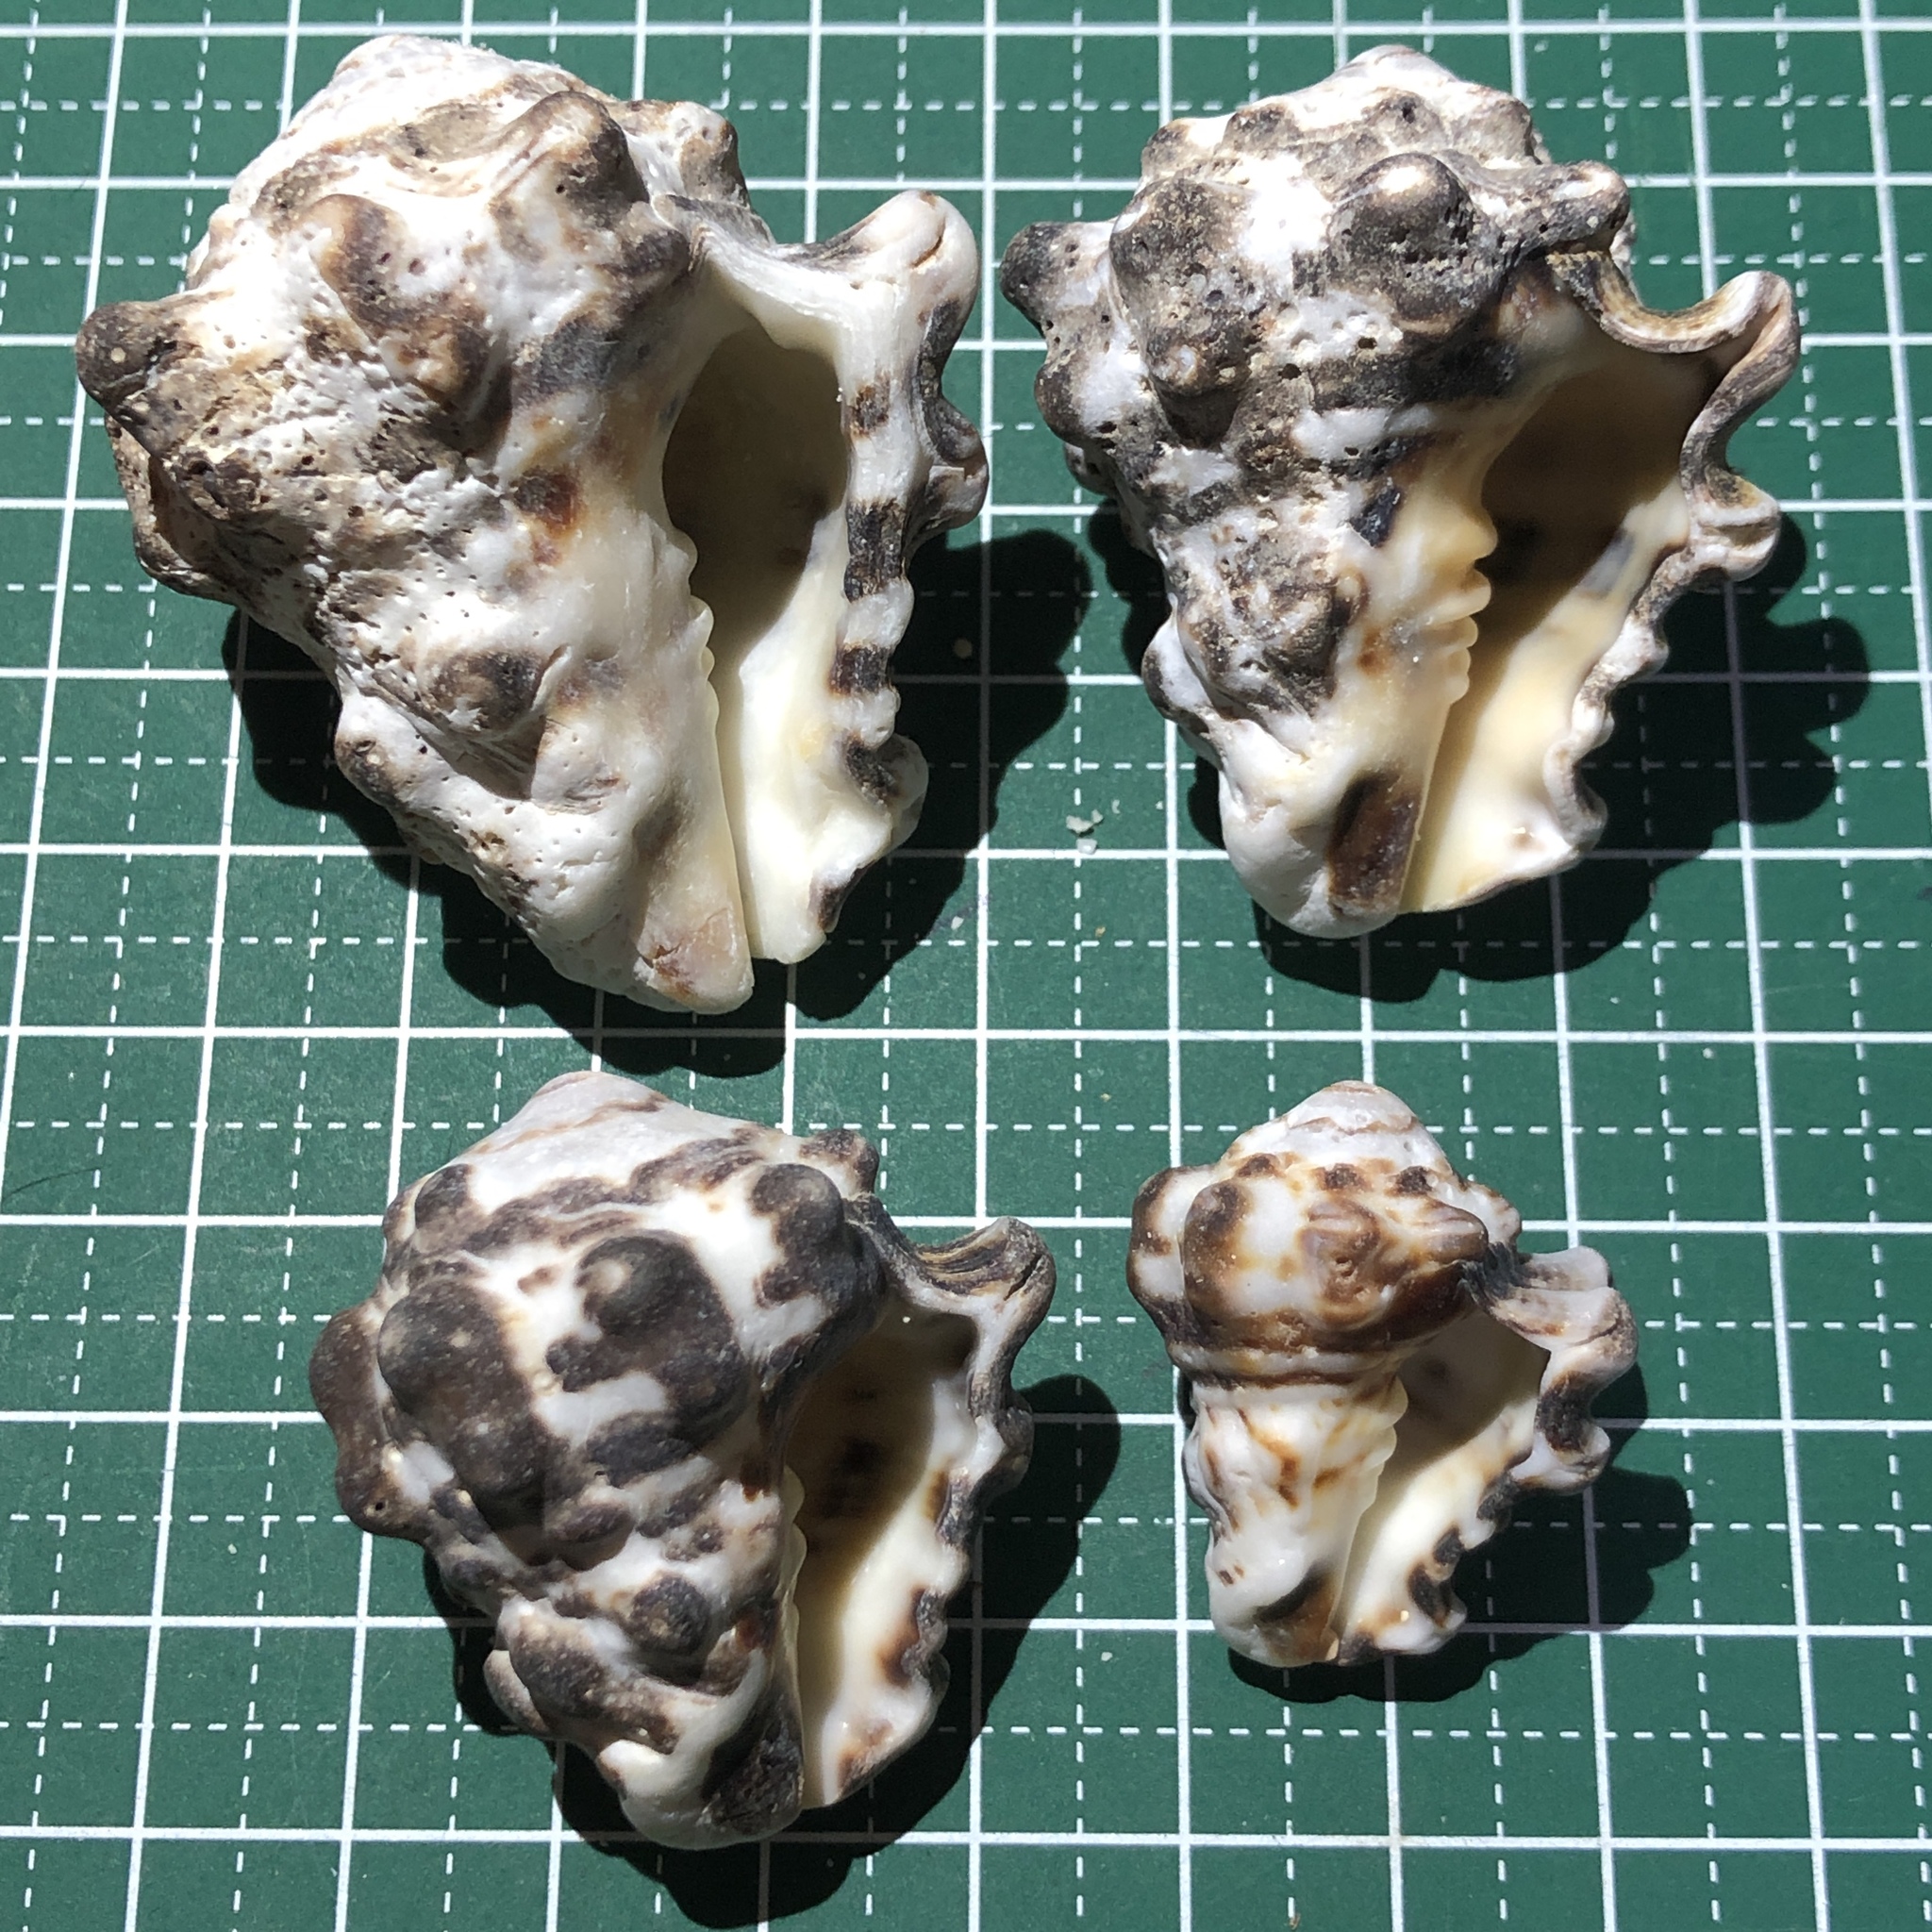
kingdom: Animalia
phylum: Mollusca
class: Gastropoda
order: Neogastropoda
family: Turbinellidae
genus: Vasum
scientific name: Vasum turbinellus
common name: Pacific top vase
